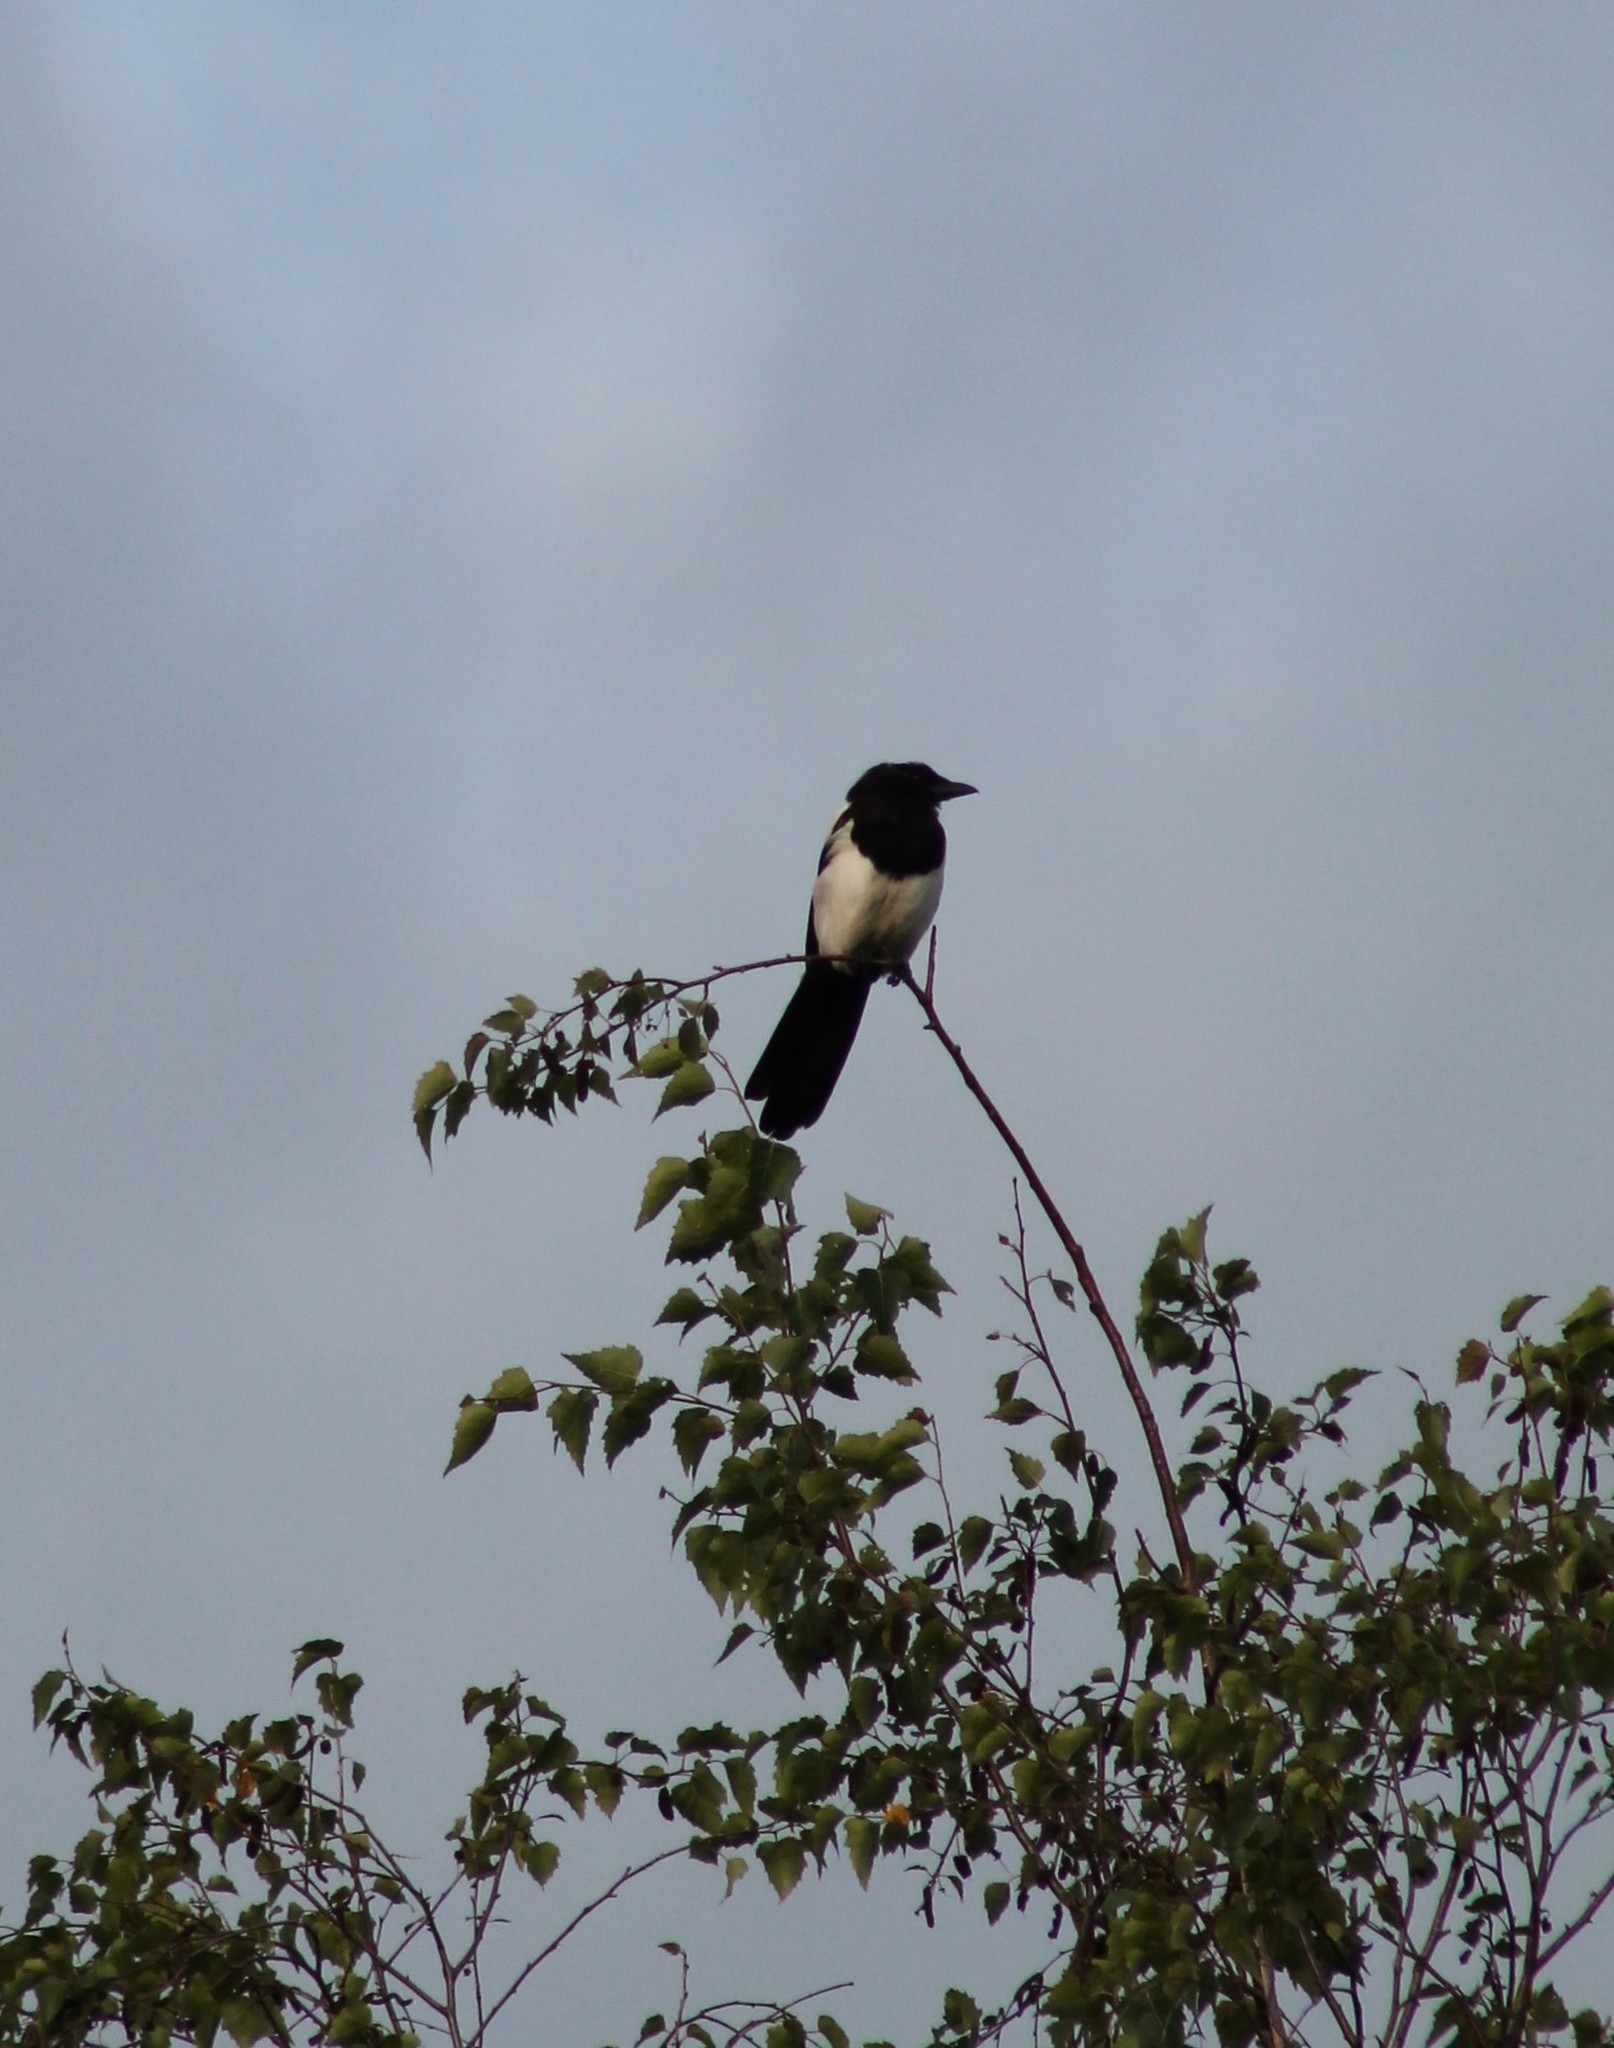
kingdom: Animalia
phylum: Chordata
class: Aves
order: Passeriformes
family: Corvidae
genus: Pica
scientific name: Pica pica
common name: Eurasian magpie
